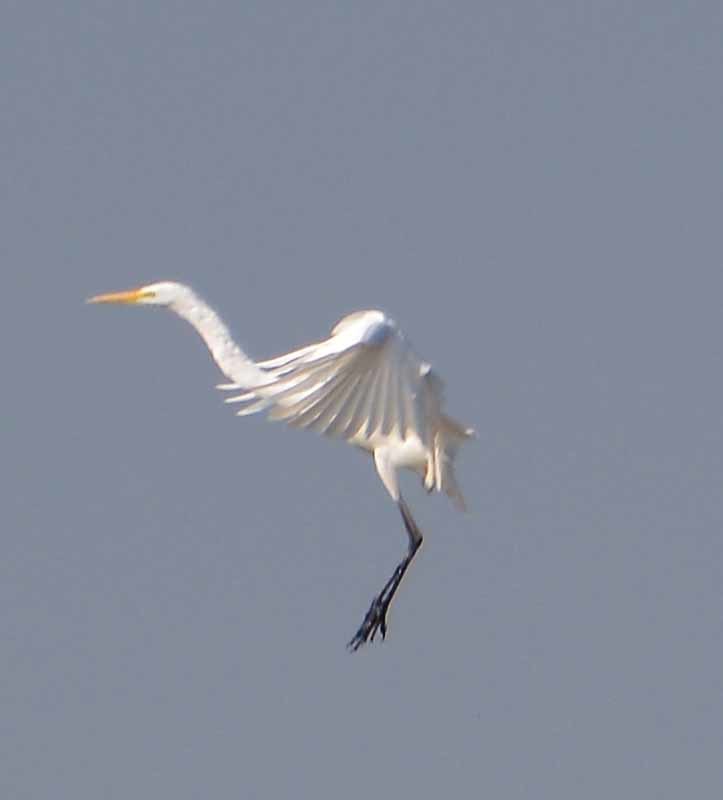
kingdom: Animalia
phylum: Chordata
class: Aves
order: Pelecaniformes
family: Ardeidae
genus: Ardea
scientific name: Ardea alba
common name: Great egret
